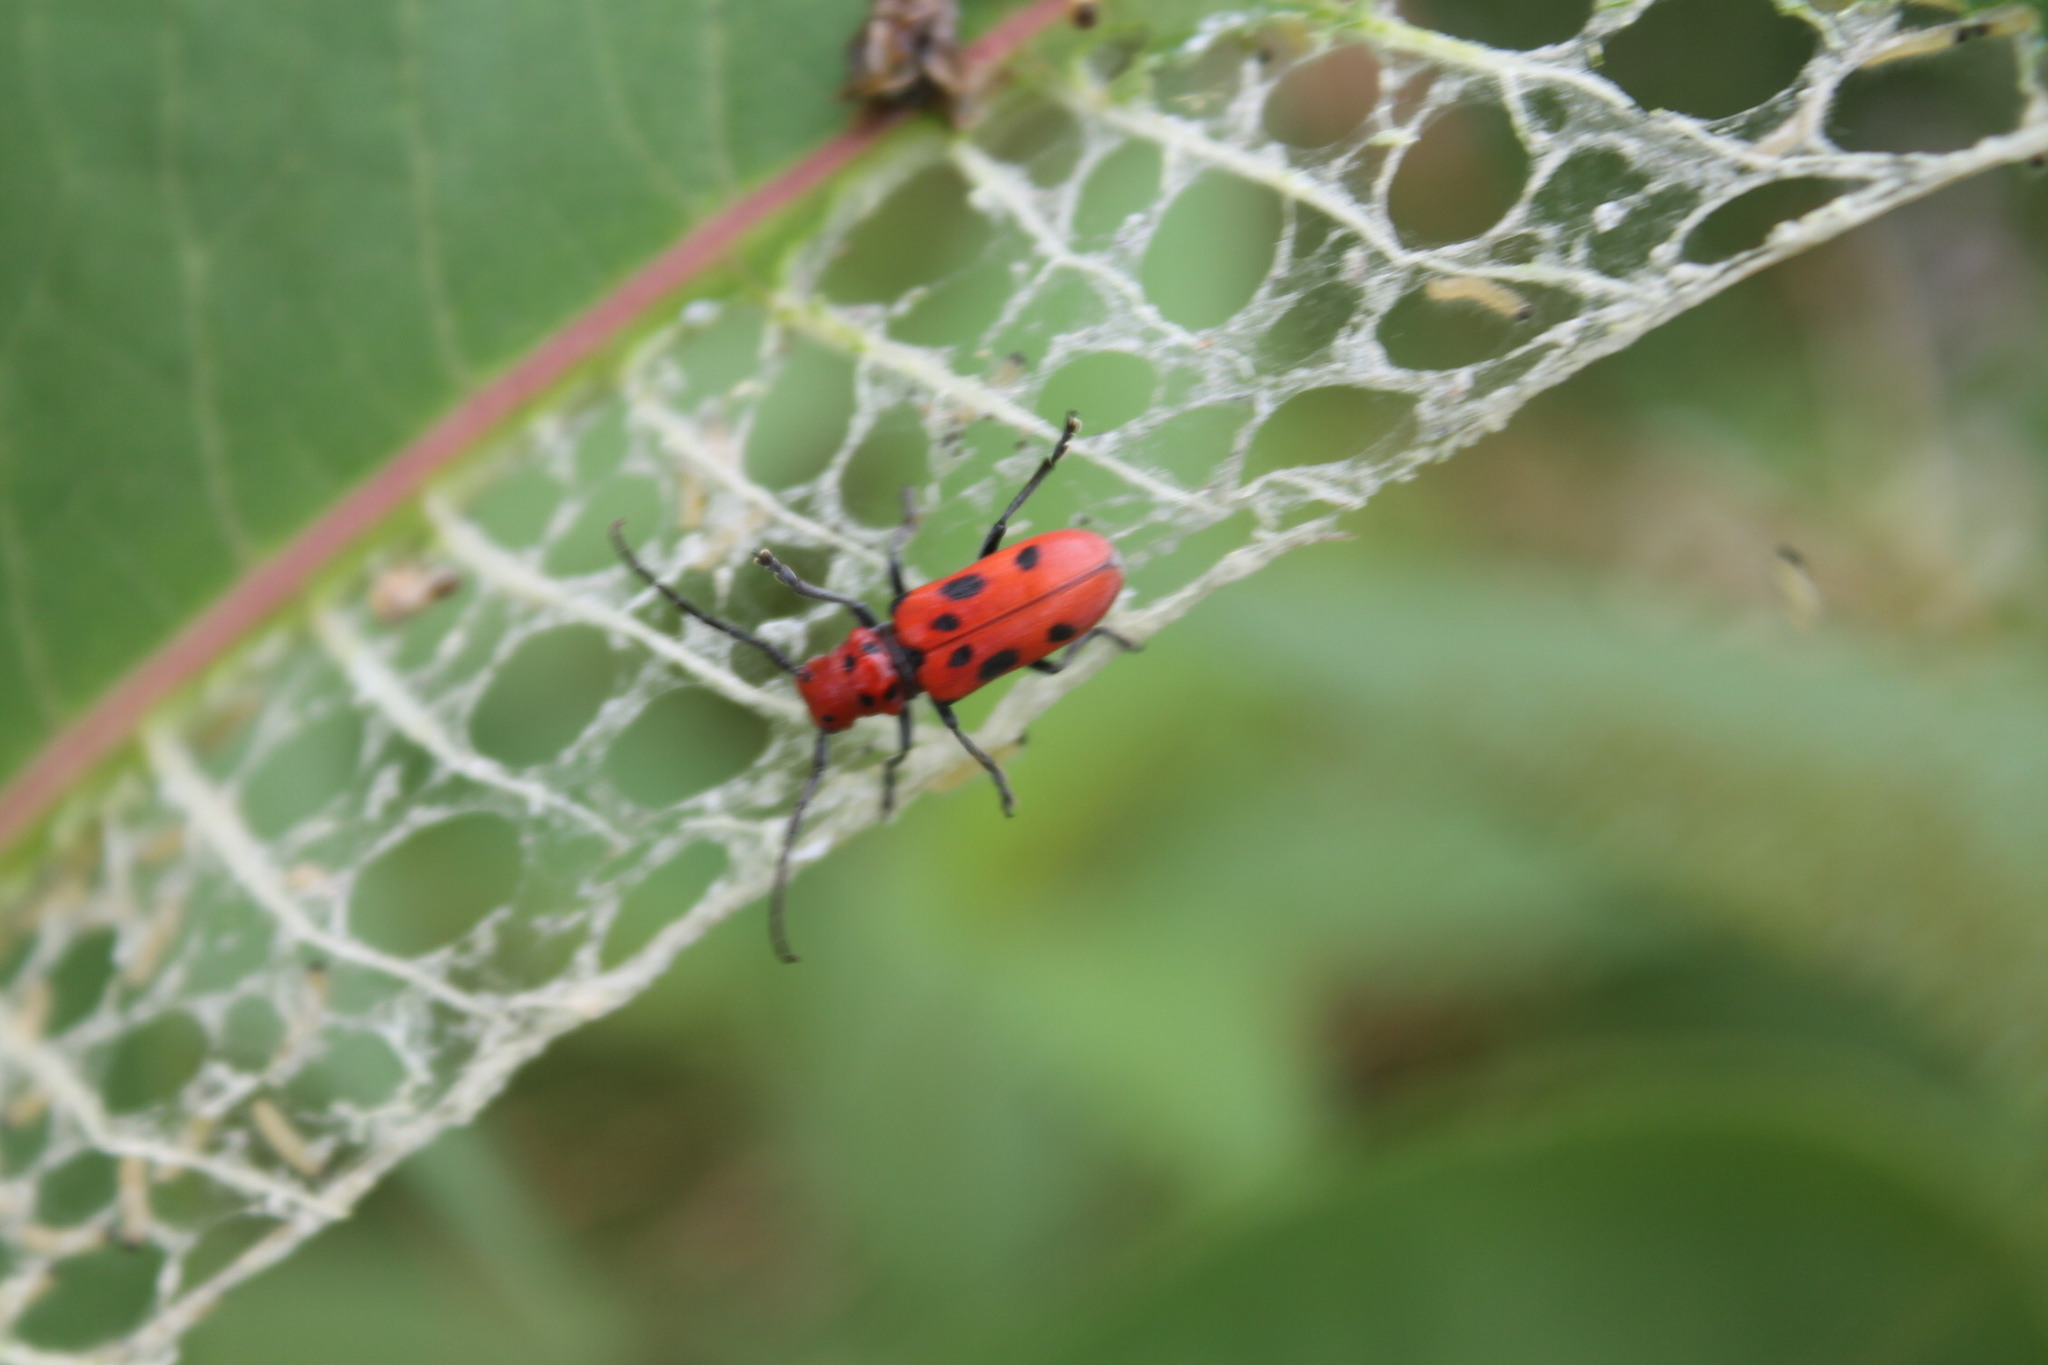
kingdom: Animalia
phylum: Arthropoda
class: Insecta
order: Coleoptera
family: Cerambycidae
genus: Tetraopes
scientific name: Tetraopes tetrophthalmus
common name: Red milkweed beetle
